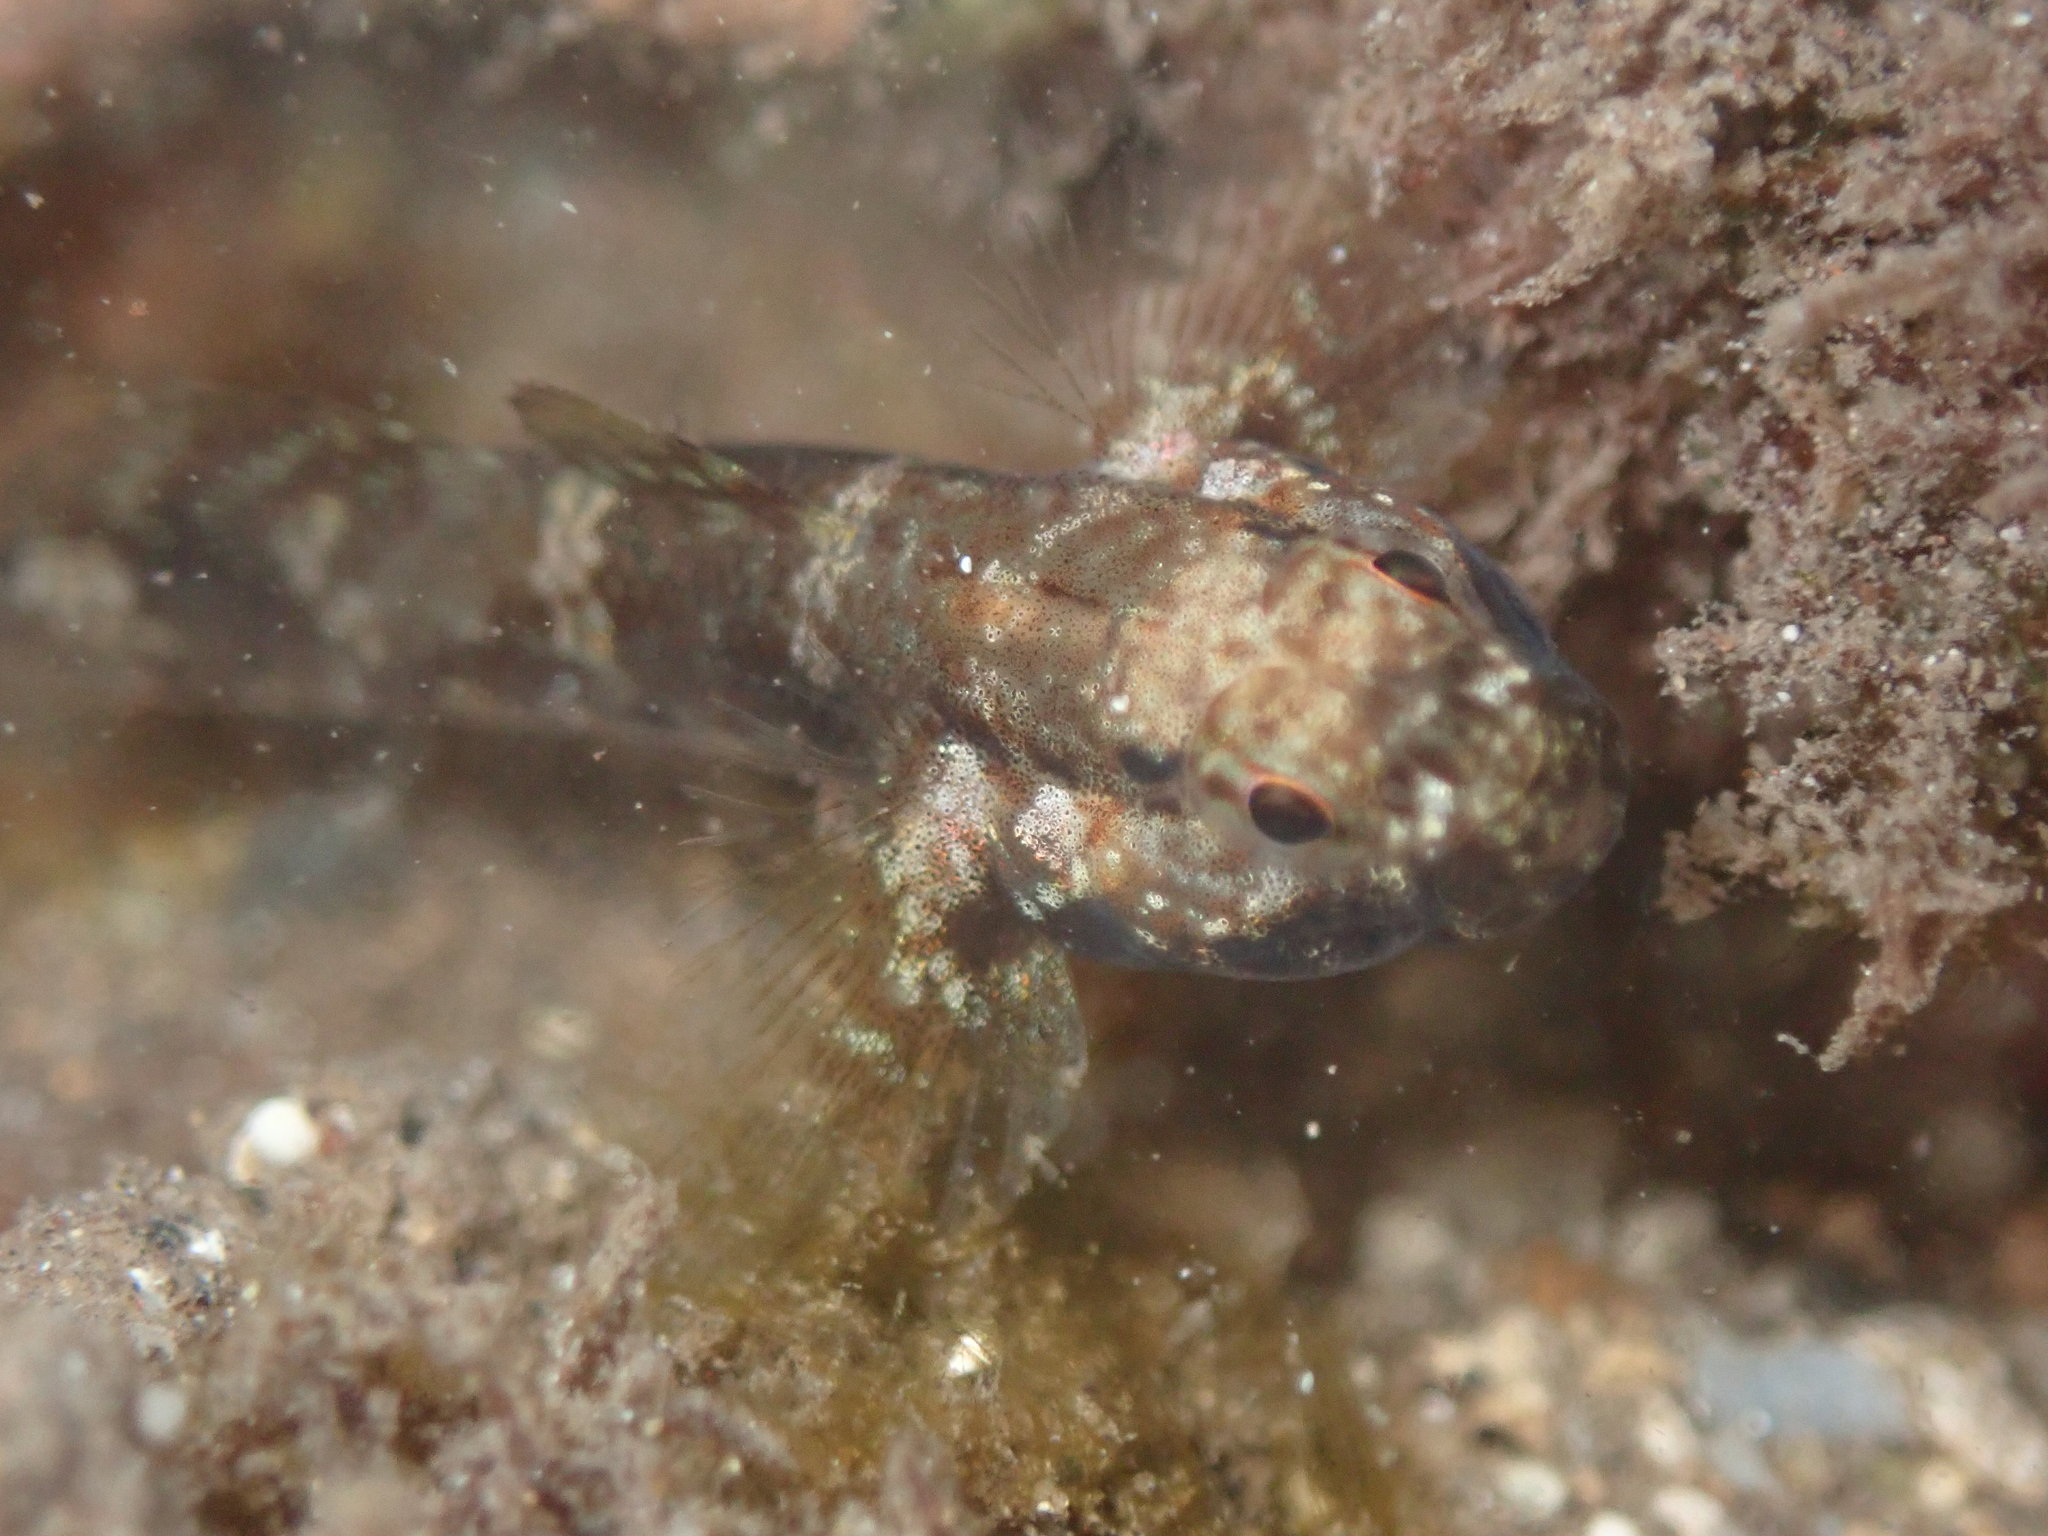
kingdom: Animalia
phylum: Chordata
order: Perciformes
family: Gobiidae
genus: Bathygobius
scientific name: Bathygobius cocosensis
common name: Cocos frillgoby
